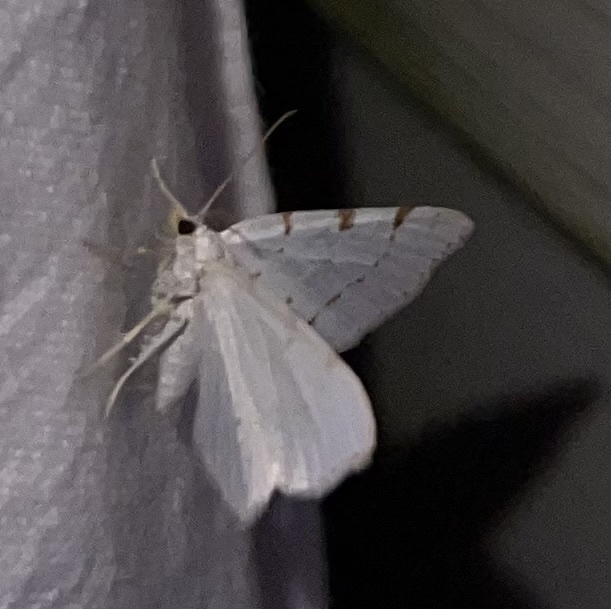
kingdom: Animalia
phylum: Arthropoda
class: Insecta
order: Lepidoptera
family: Geometridae
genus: Macaria
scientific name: Macaria pustularia
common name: Lesser maple spanworm moth
